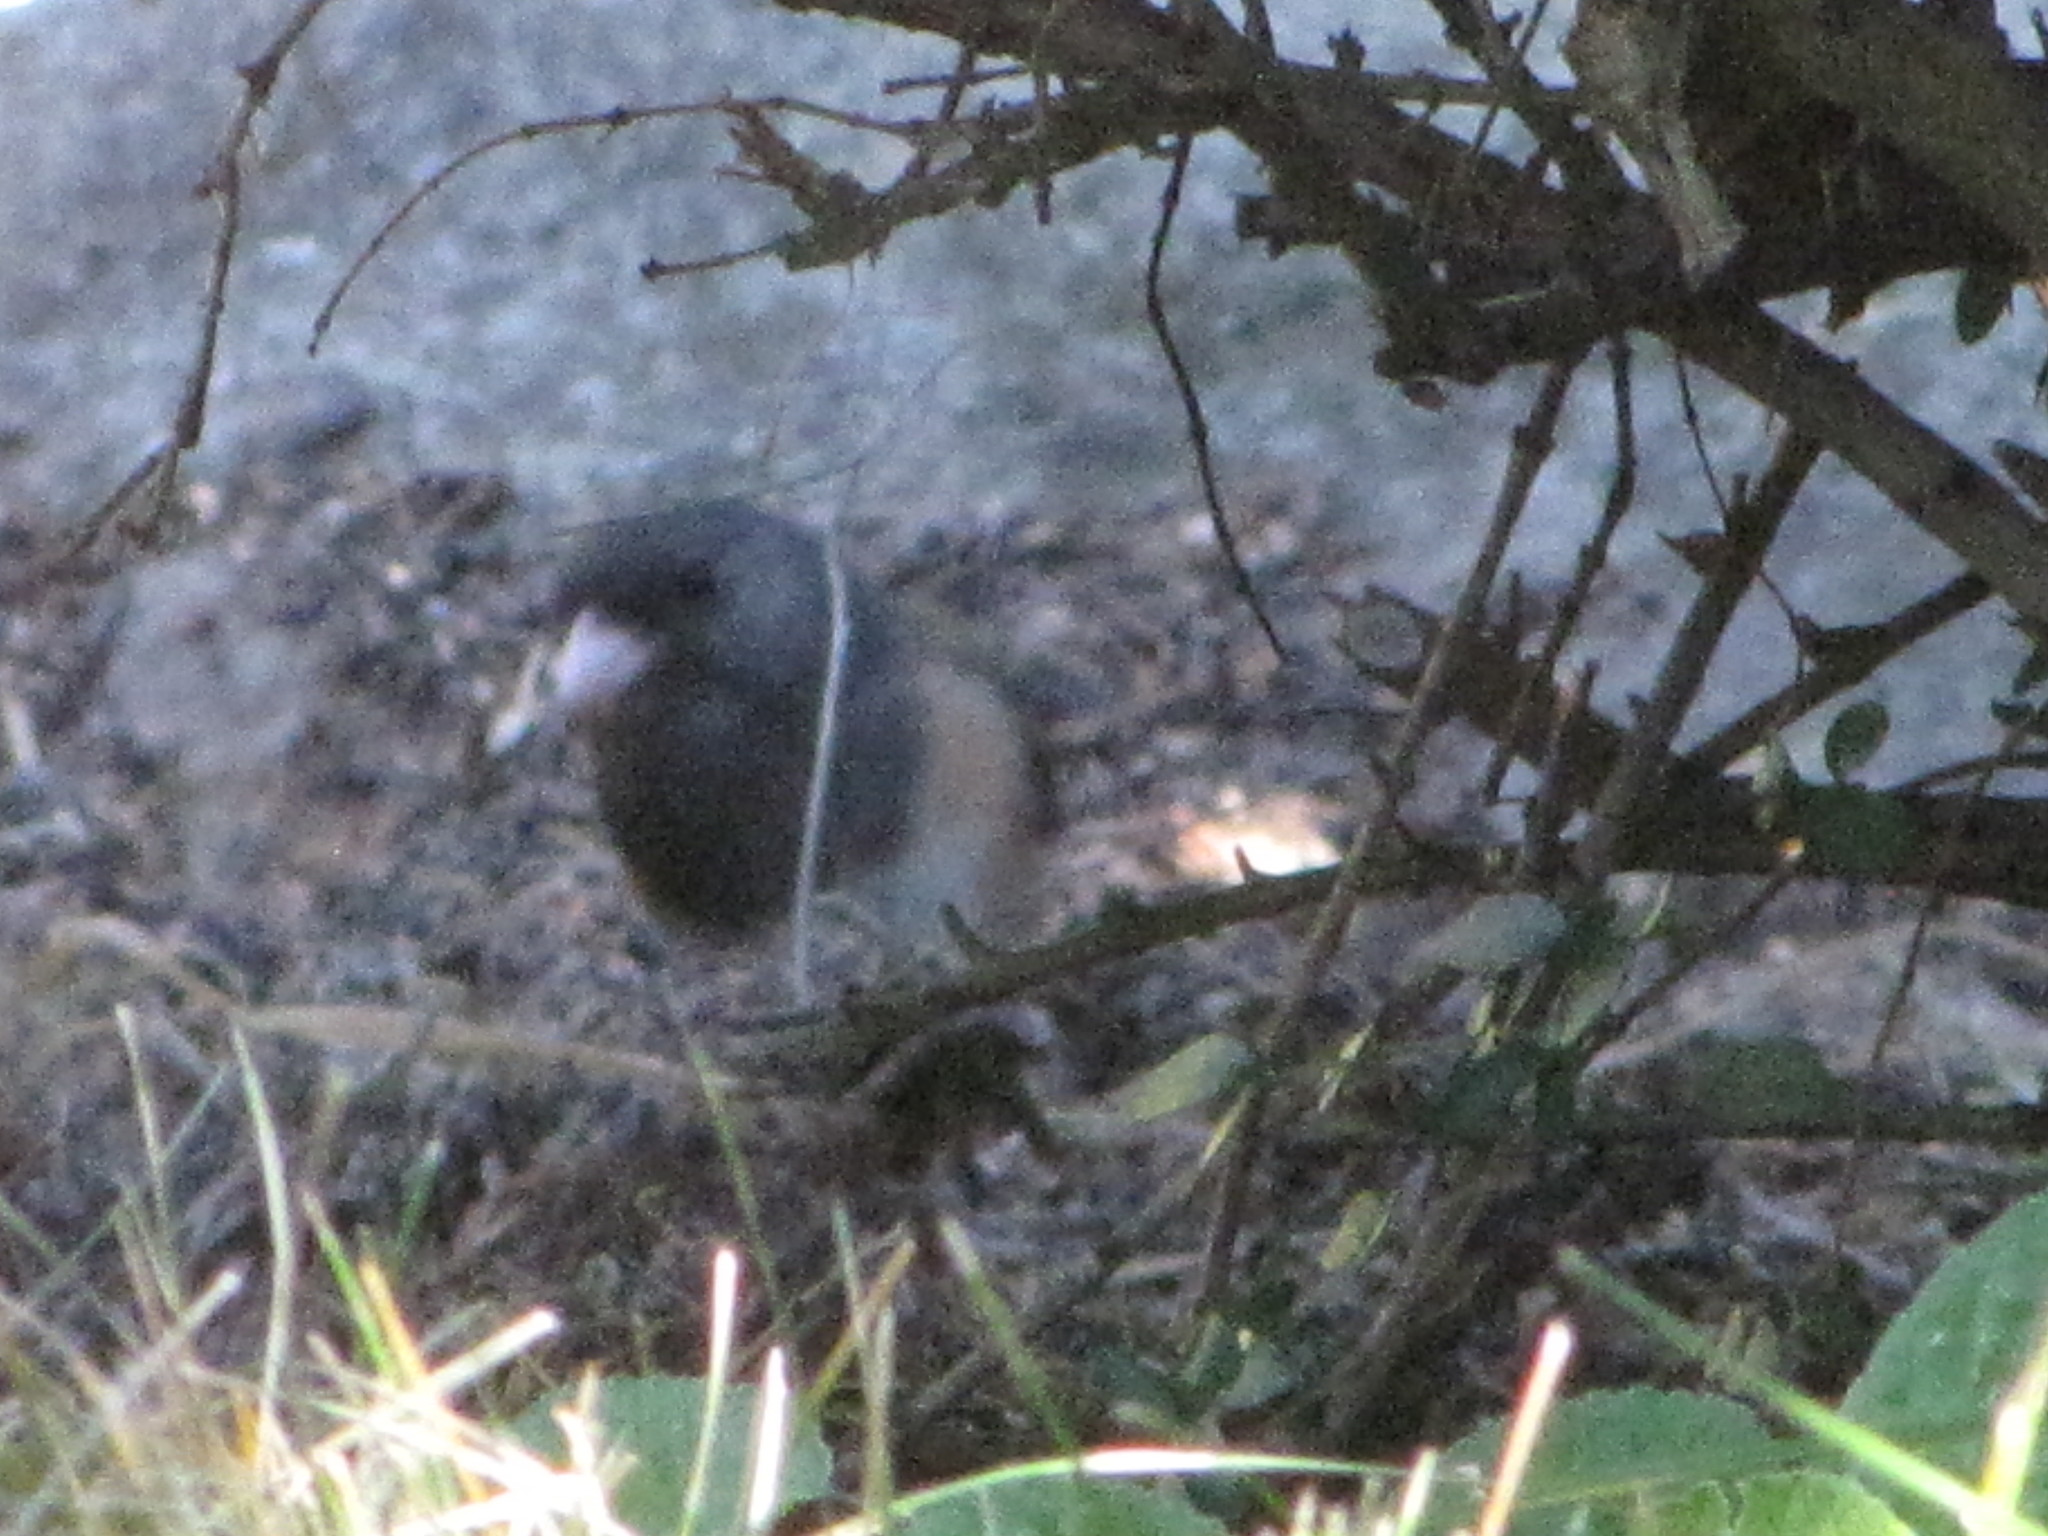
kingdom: Animalia
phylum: Chordata
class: Aves
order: Passeriformes
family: Passerellidae
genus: Junco
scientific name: Junco hyemalis
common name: Dark-eyed junco
